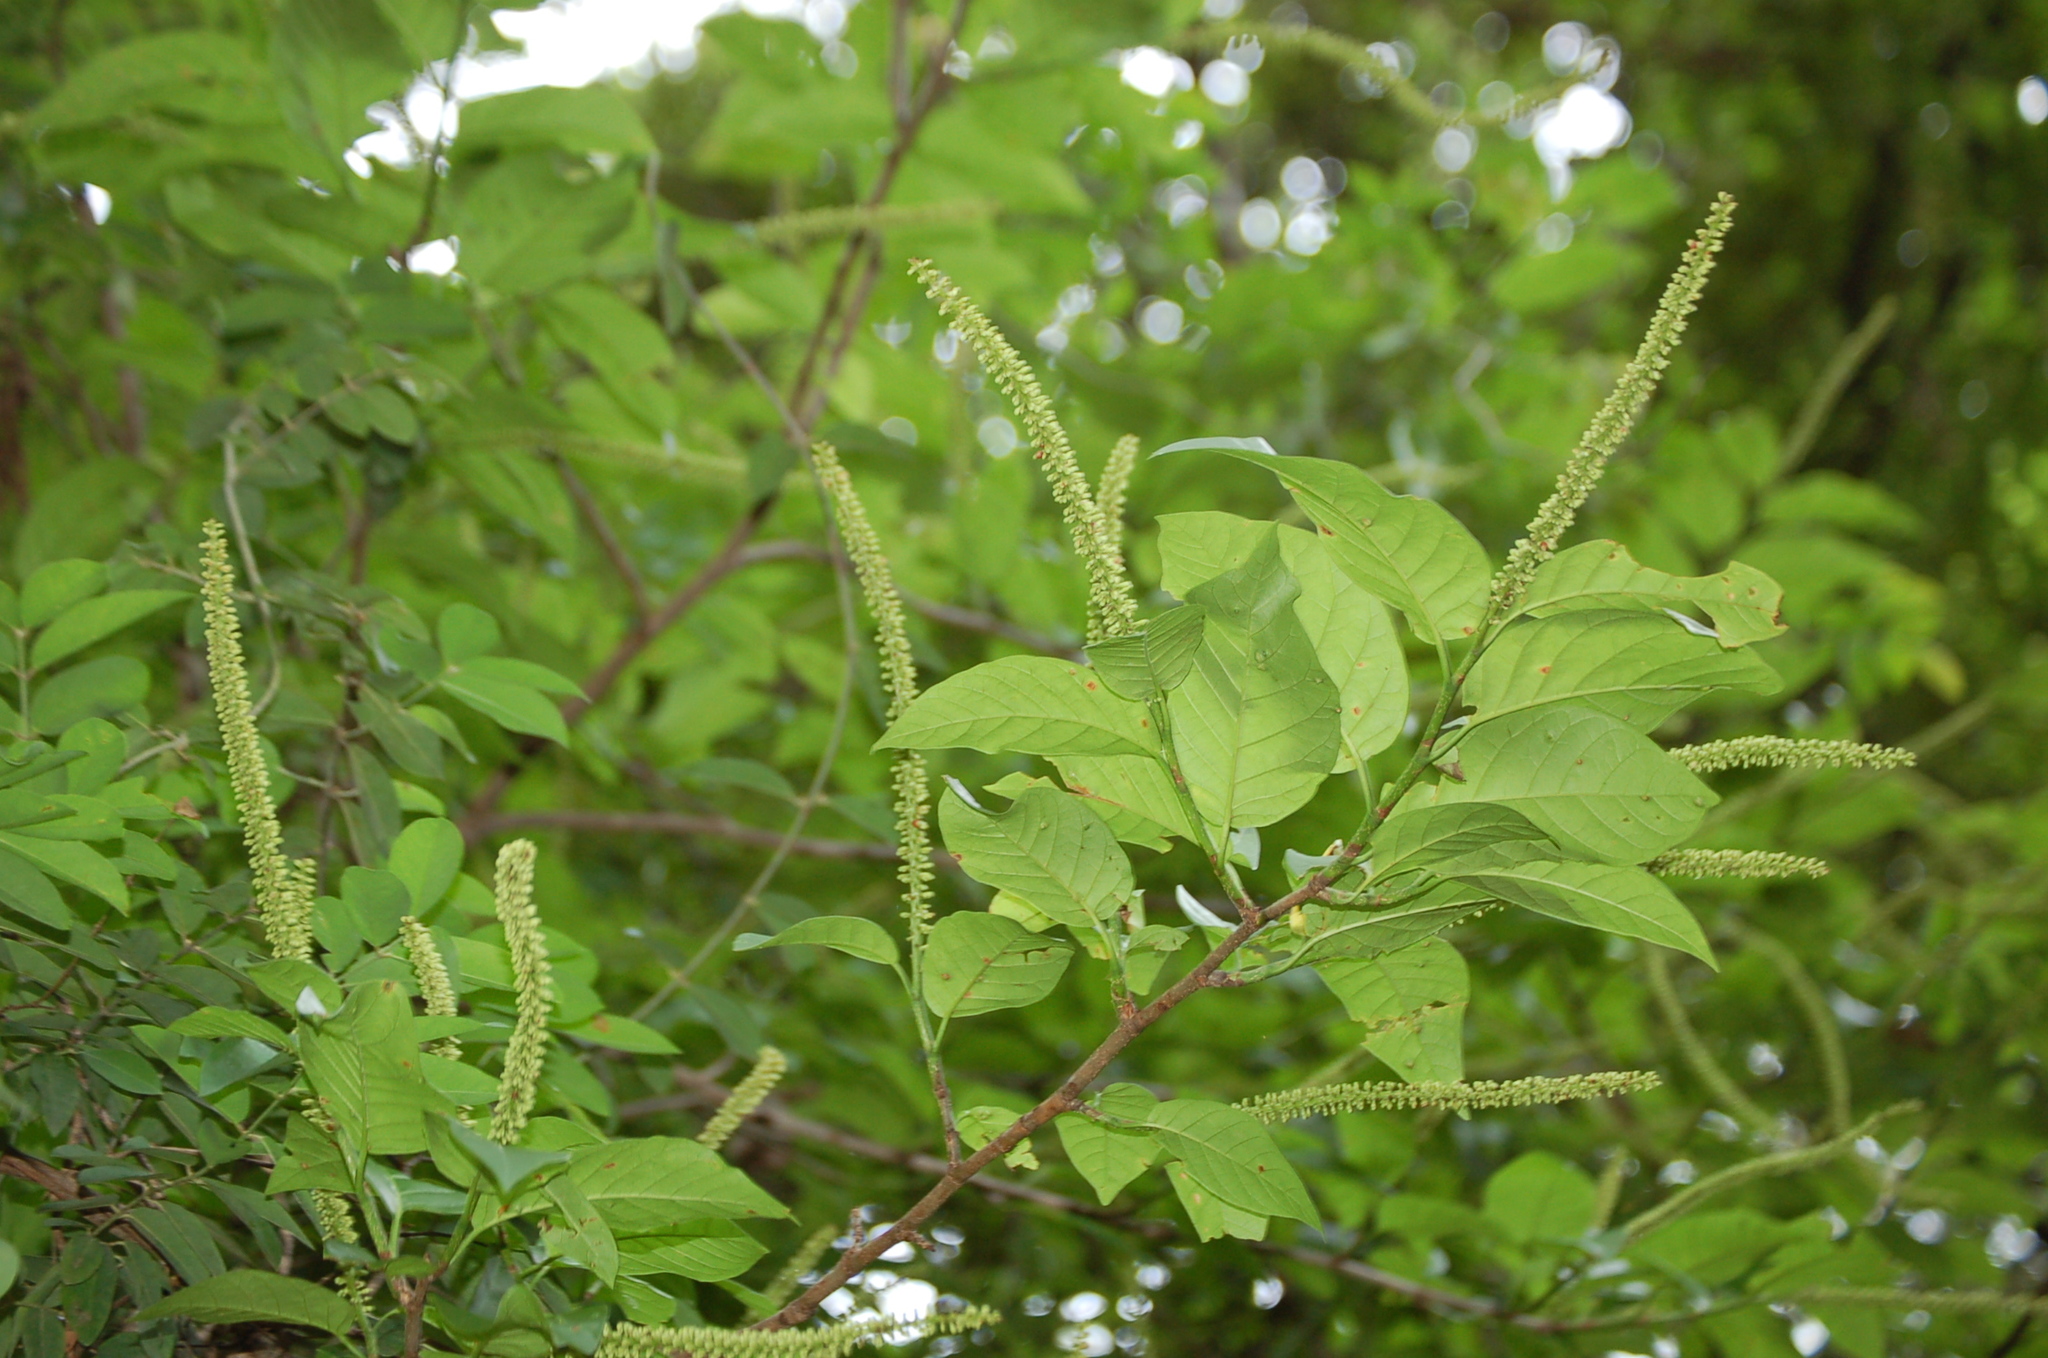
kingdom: Plantae
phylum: Tracheophyta
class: Magnoliopsida
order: Caryophyllales
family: Polygonaceae
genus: Coccoloba
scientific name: Coccoloba cozumelensis
